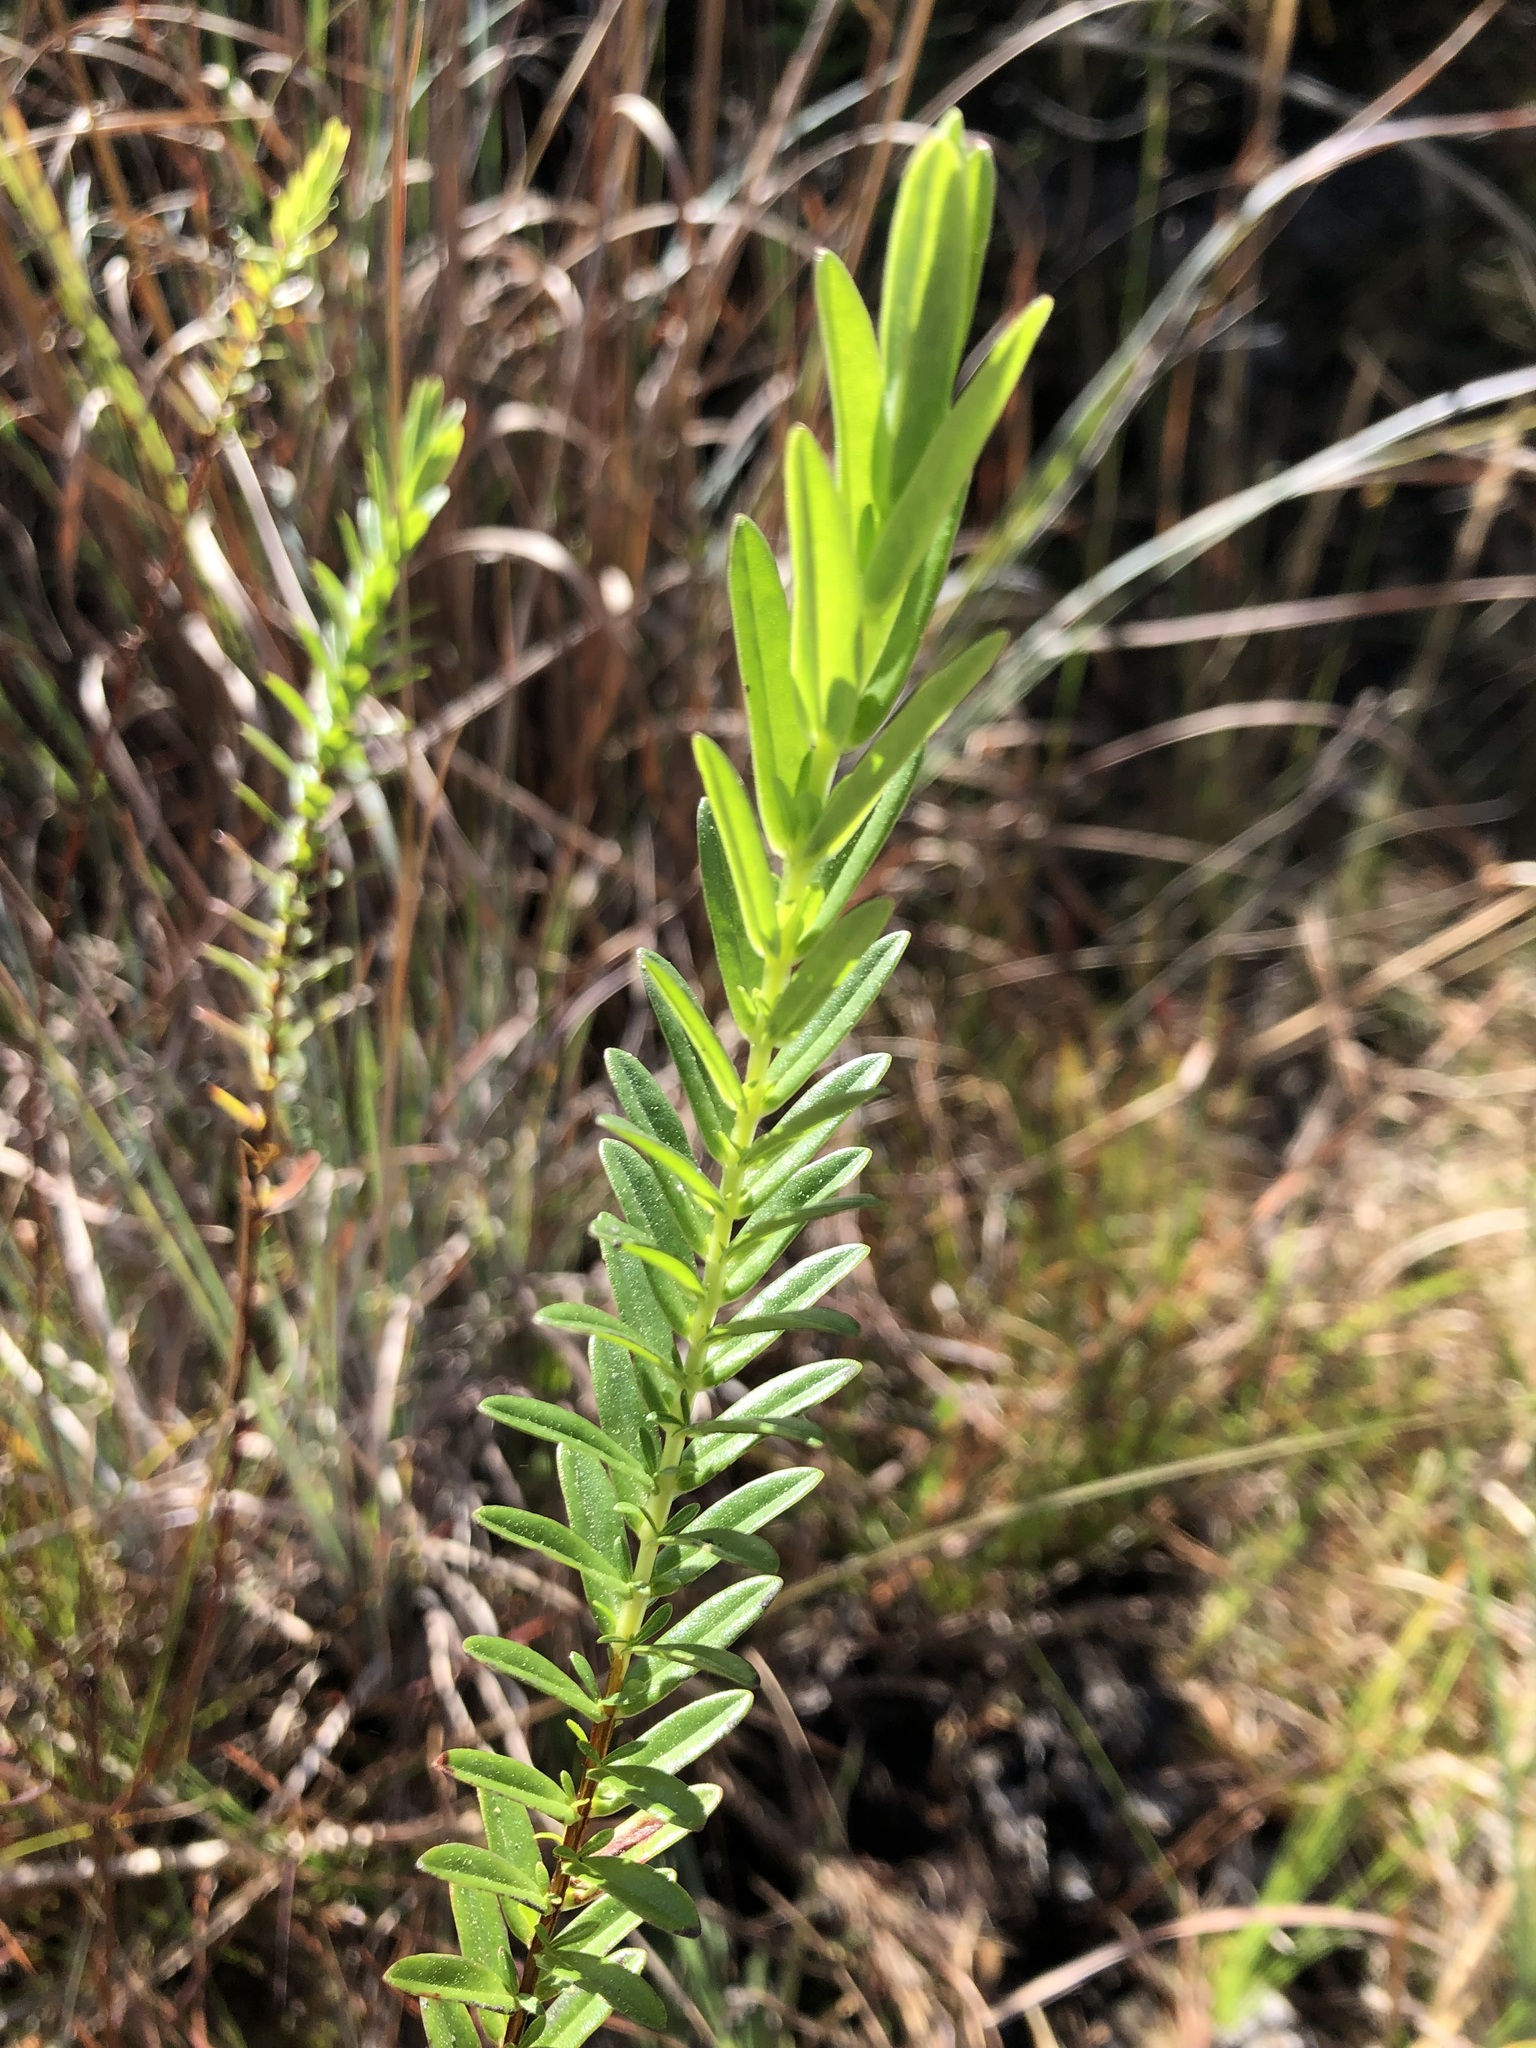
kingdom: Plantae
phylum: Tracheophyta
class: Magnoliopsida
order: Malpighiales
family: Hypericaceae
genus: Hypericum
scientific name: Hypericum cistifolium
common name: Round-pod st. john's-wort
